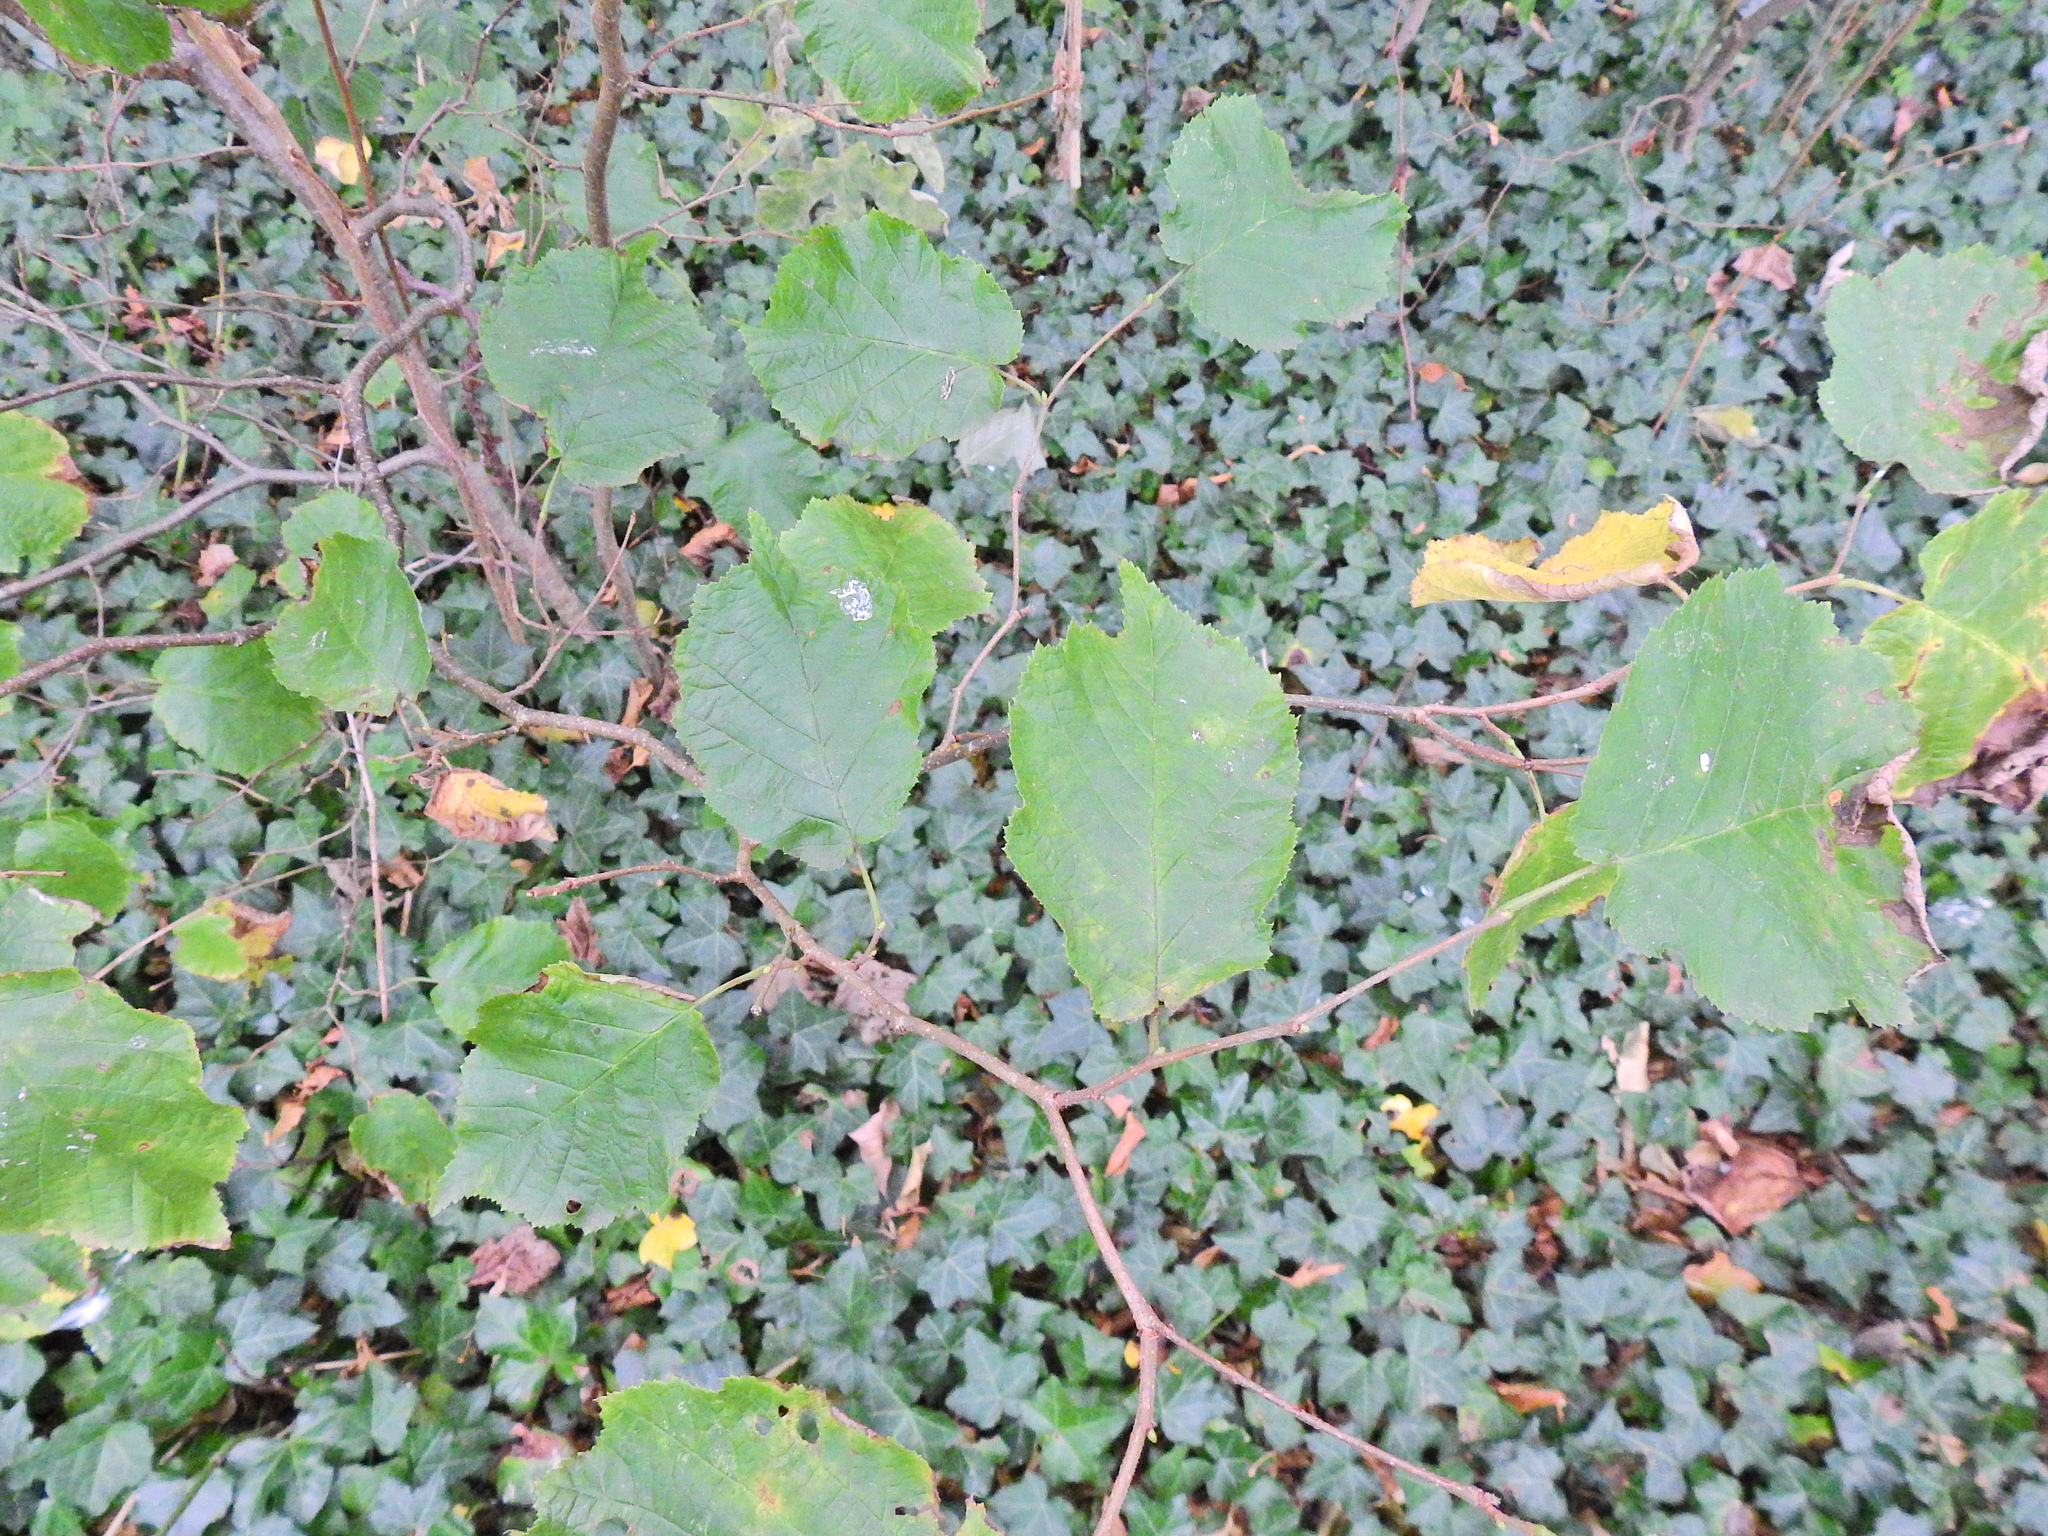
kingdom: Plantae
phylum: Tracheophyta
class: Magnoliopsida
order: Fagales
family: Betulaceae
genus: Corylus
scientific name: Corylus avellana
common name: European hazel
